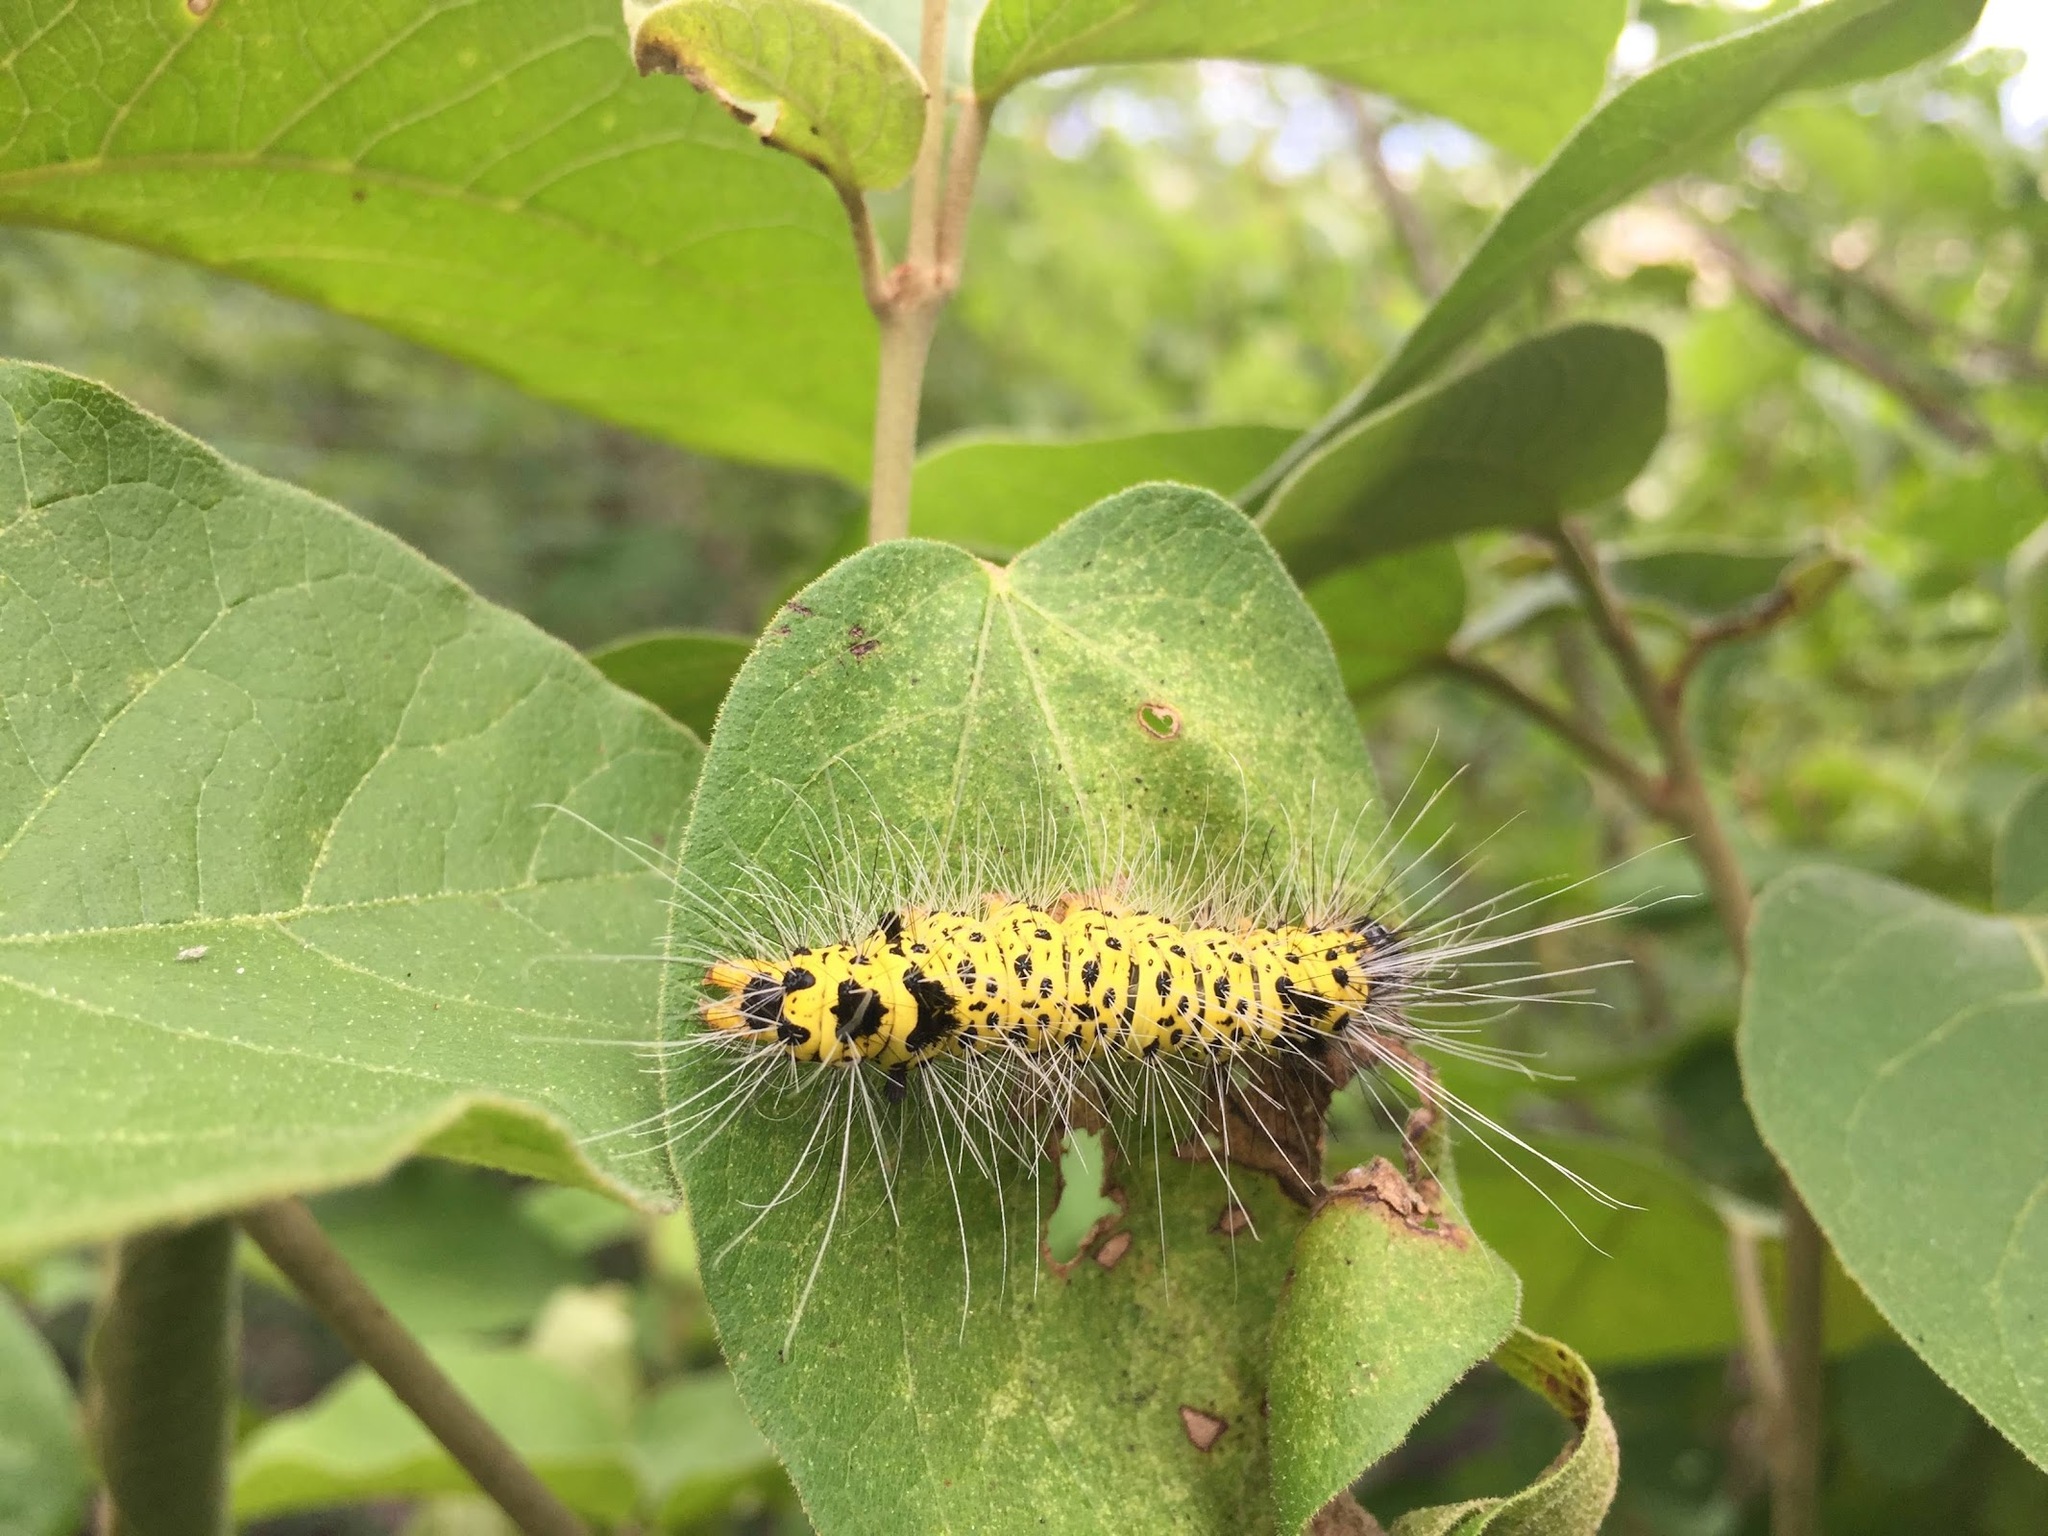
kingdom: Animalia
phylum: Arthropoda
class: Insecta
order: Lepidoptera
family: Erebidae
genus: Phaloesia
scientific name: Phaloesia saucia
